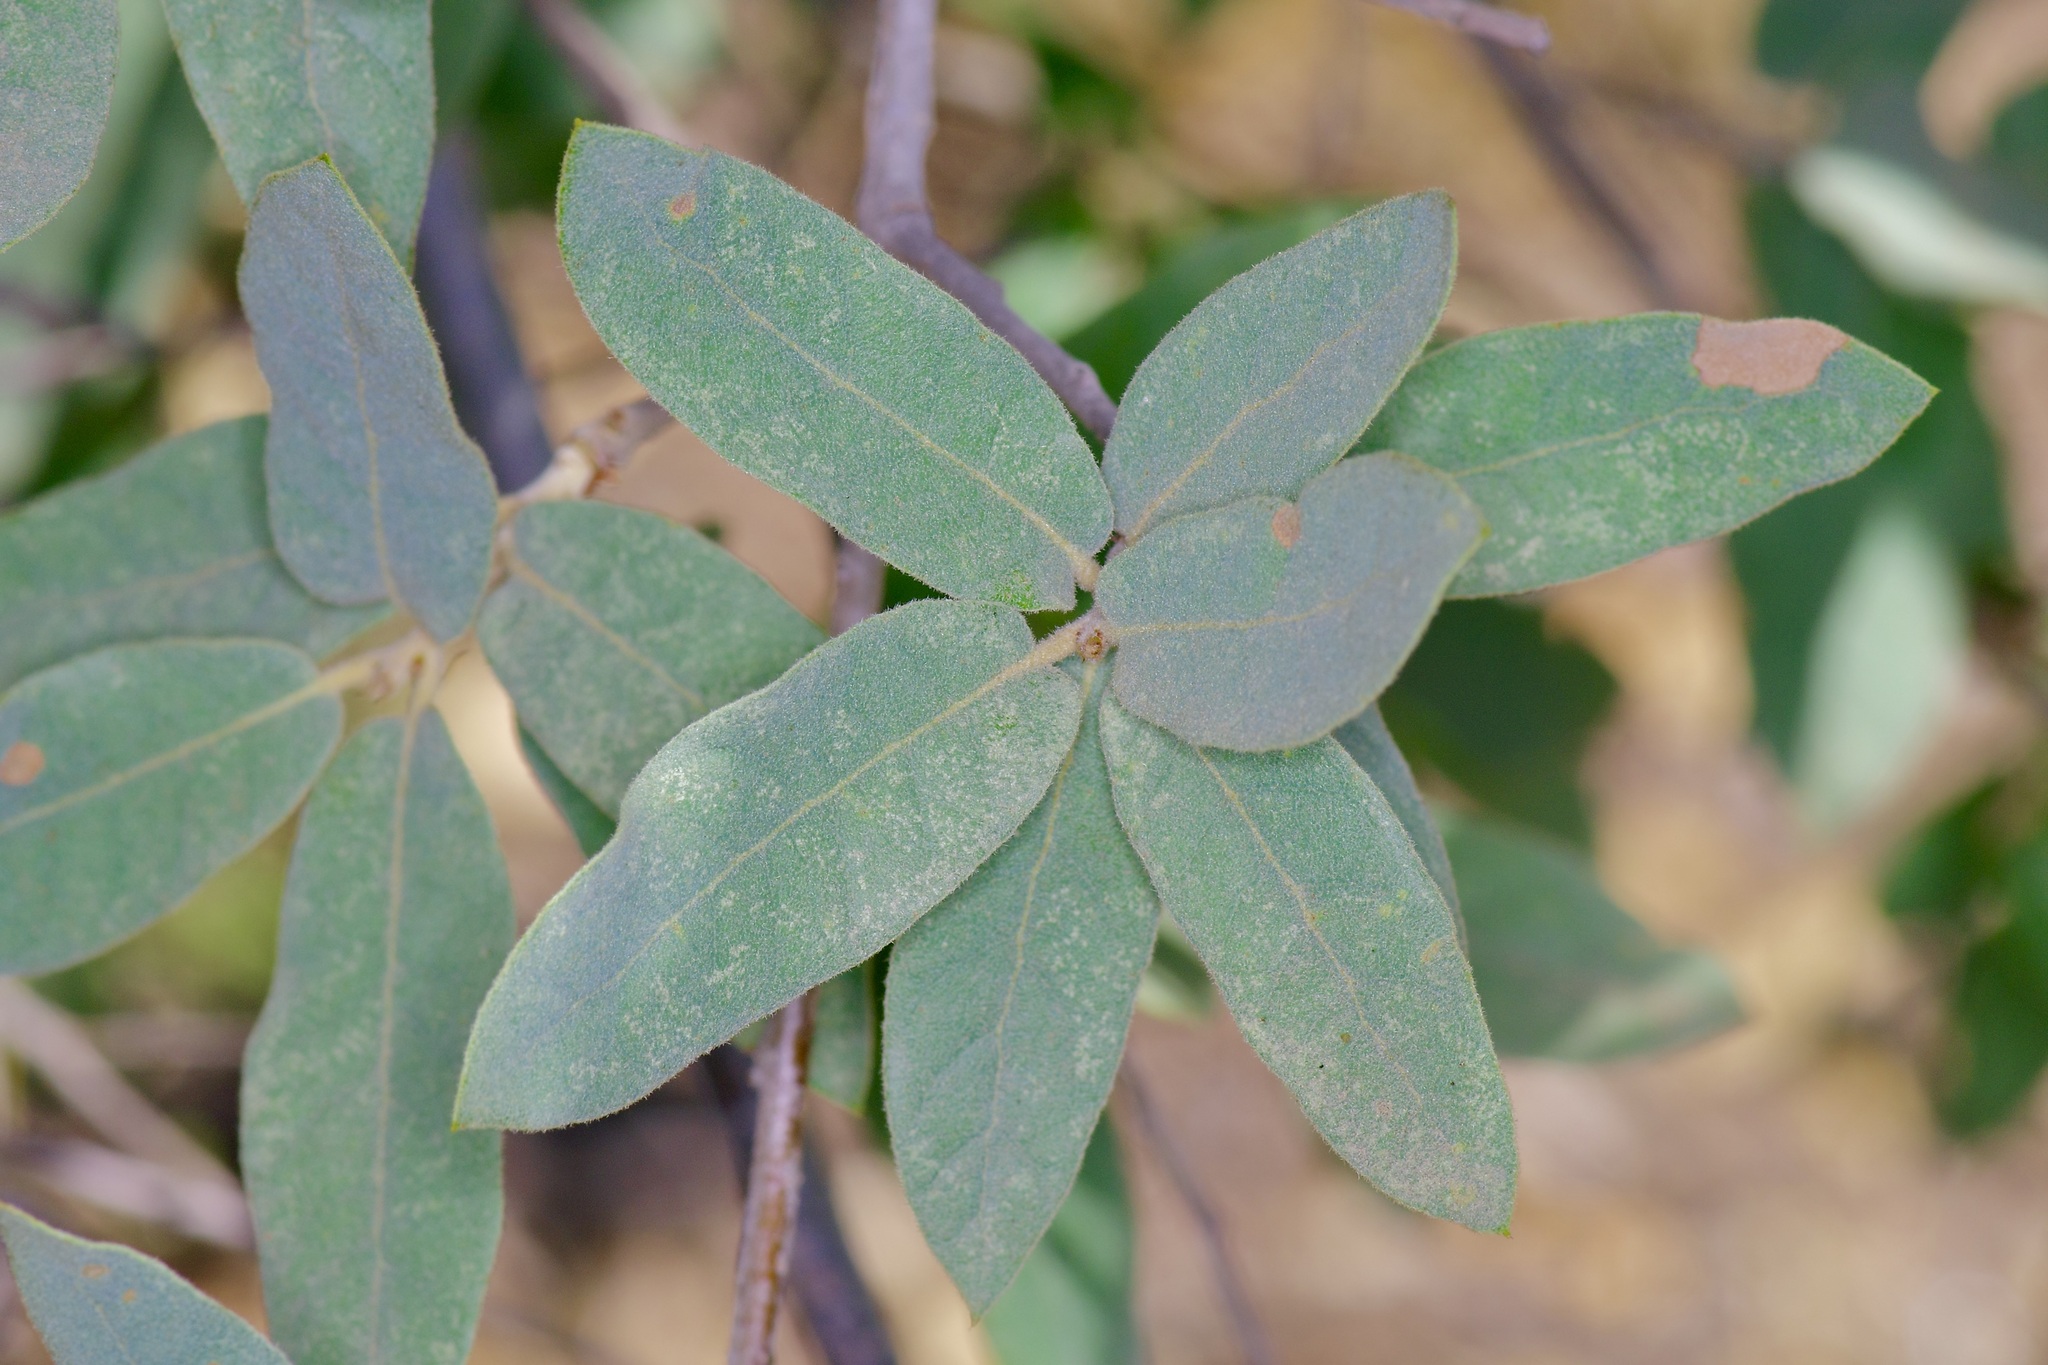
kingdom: Plantae
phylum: Tracheophyta
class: Magnoliopsida
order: Fagales
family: Fagaceae
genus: Quercus
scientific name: Quercus grisea
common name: Gray oak
